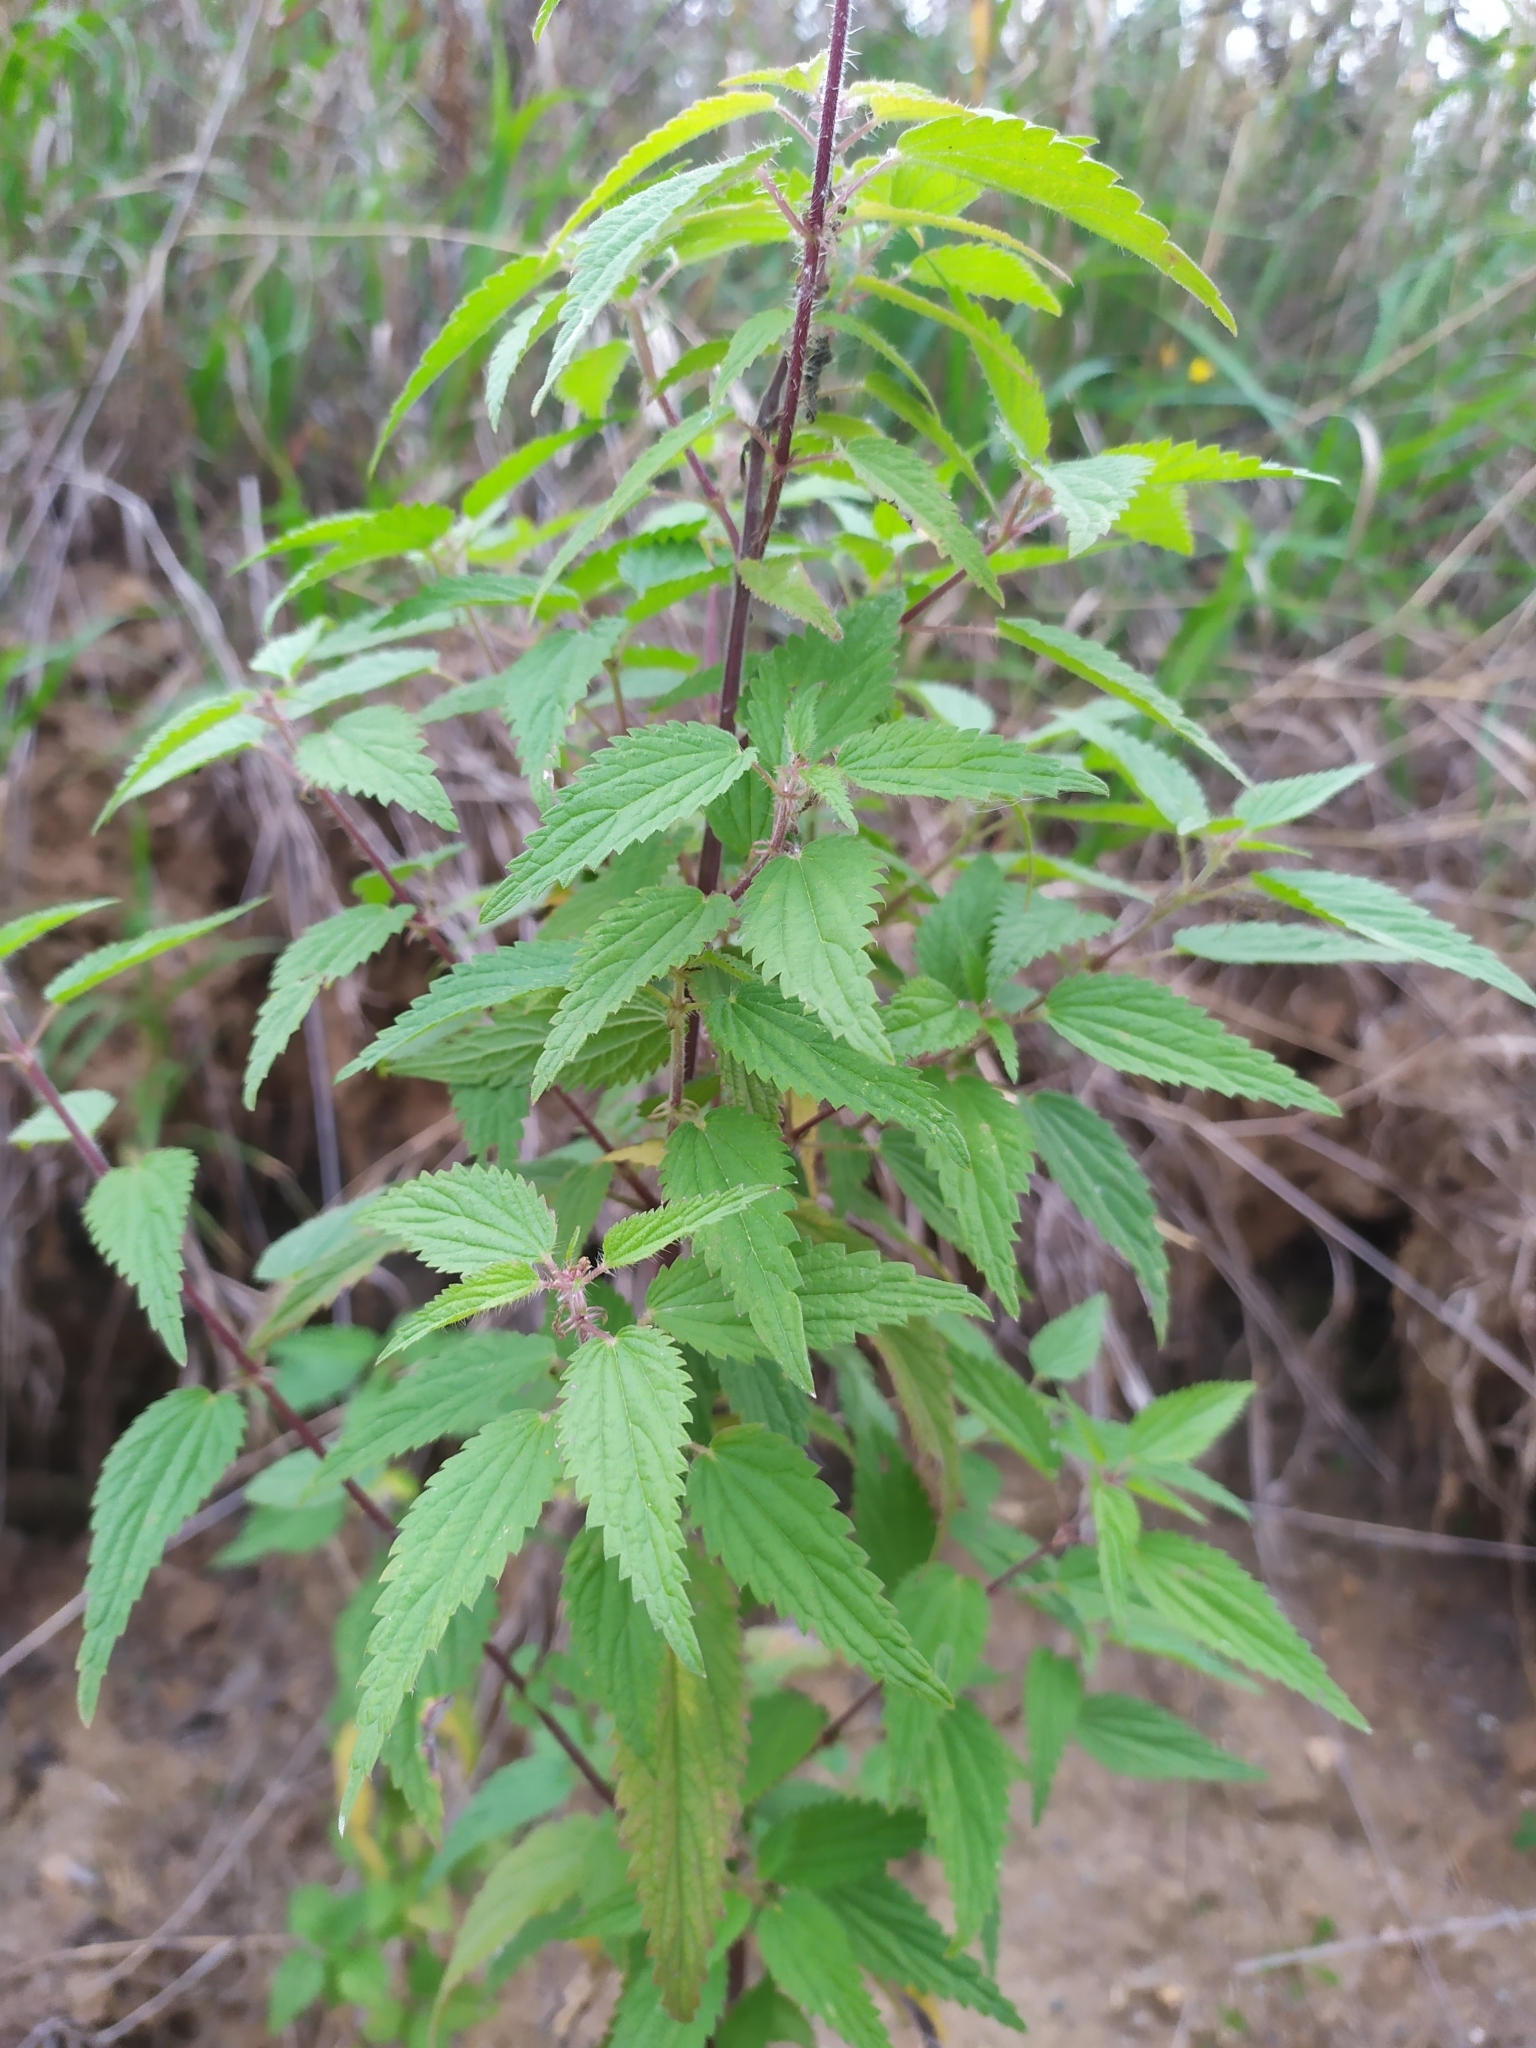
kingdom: Plantae
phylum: Tracheophyta
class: Magnoliopsida
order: Rosales
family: Urticaceae
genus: Urtica
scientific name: Urtica dioica
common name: Common nettle
